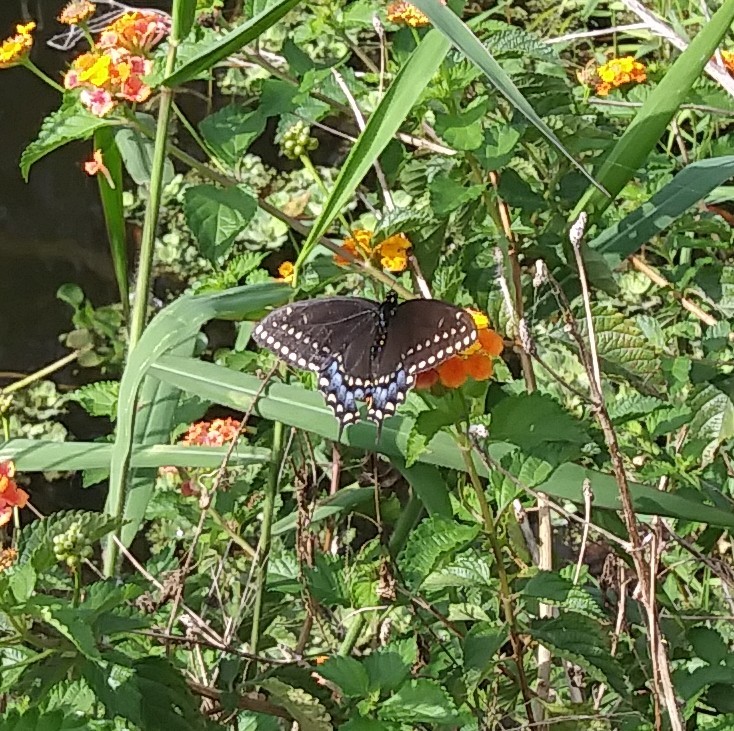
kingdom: Animalia
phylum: Arthropoda
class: Insecta
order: Lepidoptera
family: Papilionidae
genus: Papilio
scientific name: Papilio polyxenes
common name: Black swallowtail
